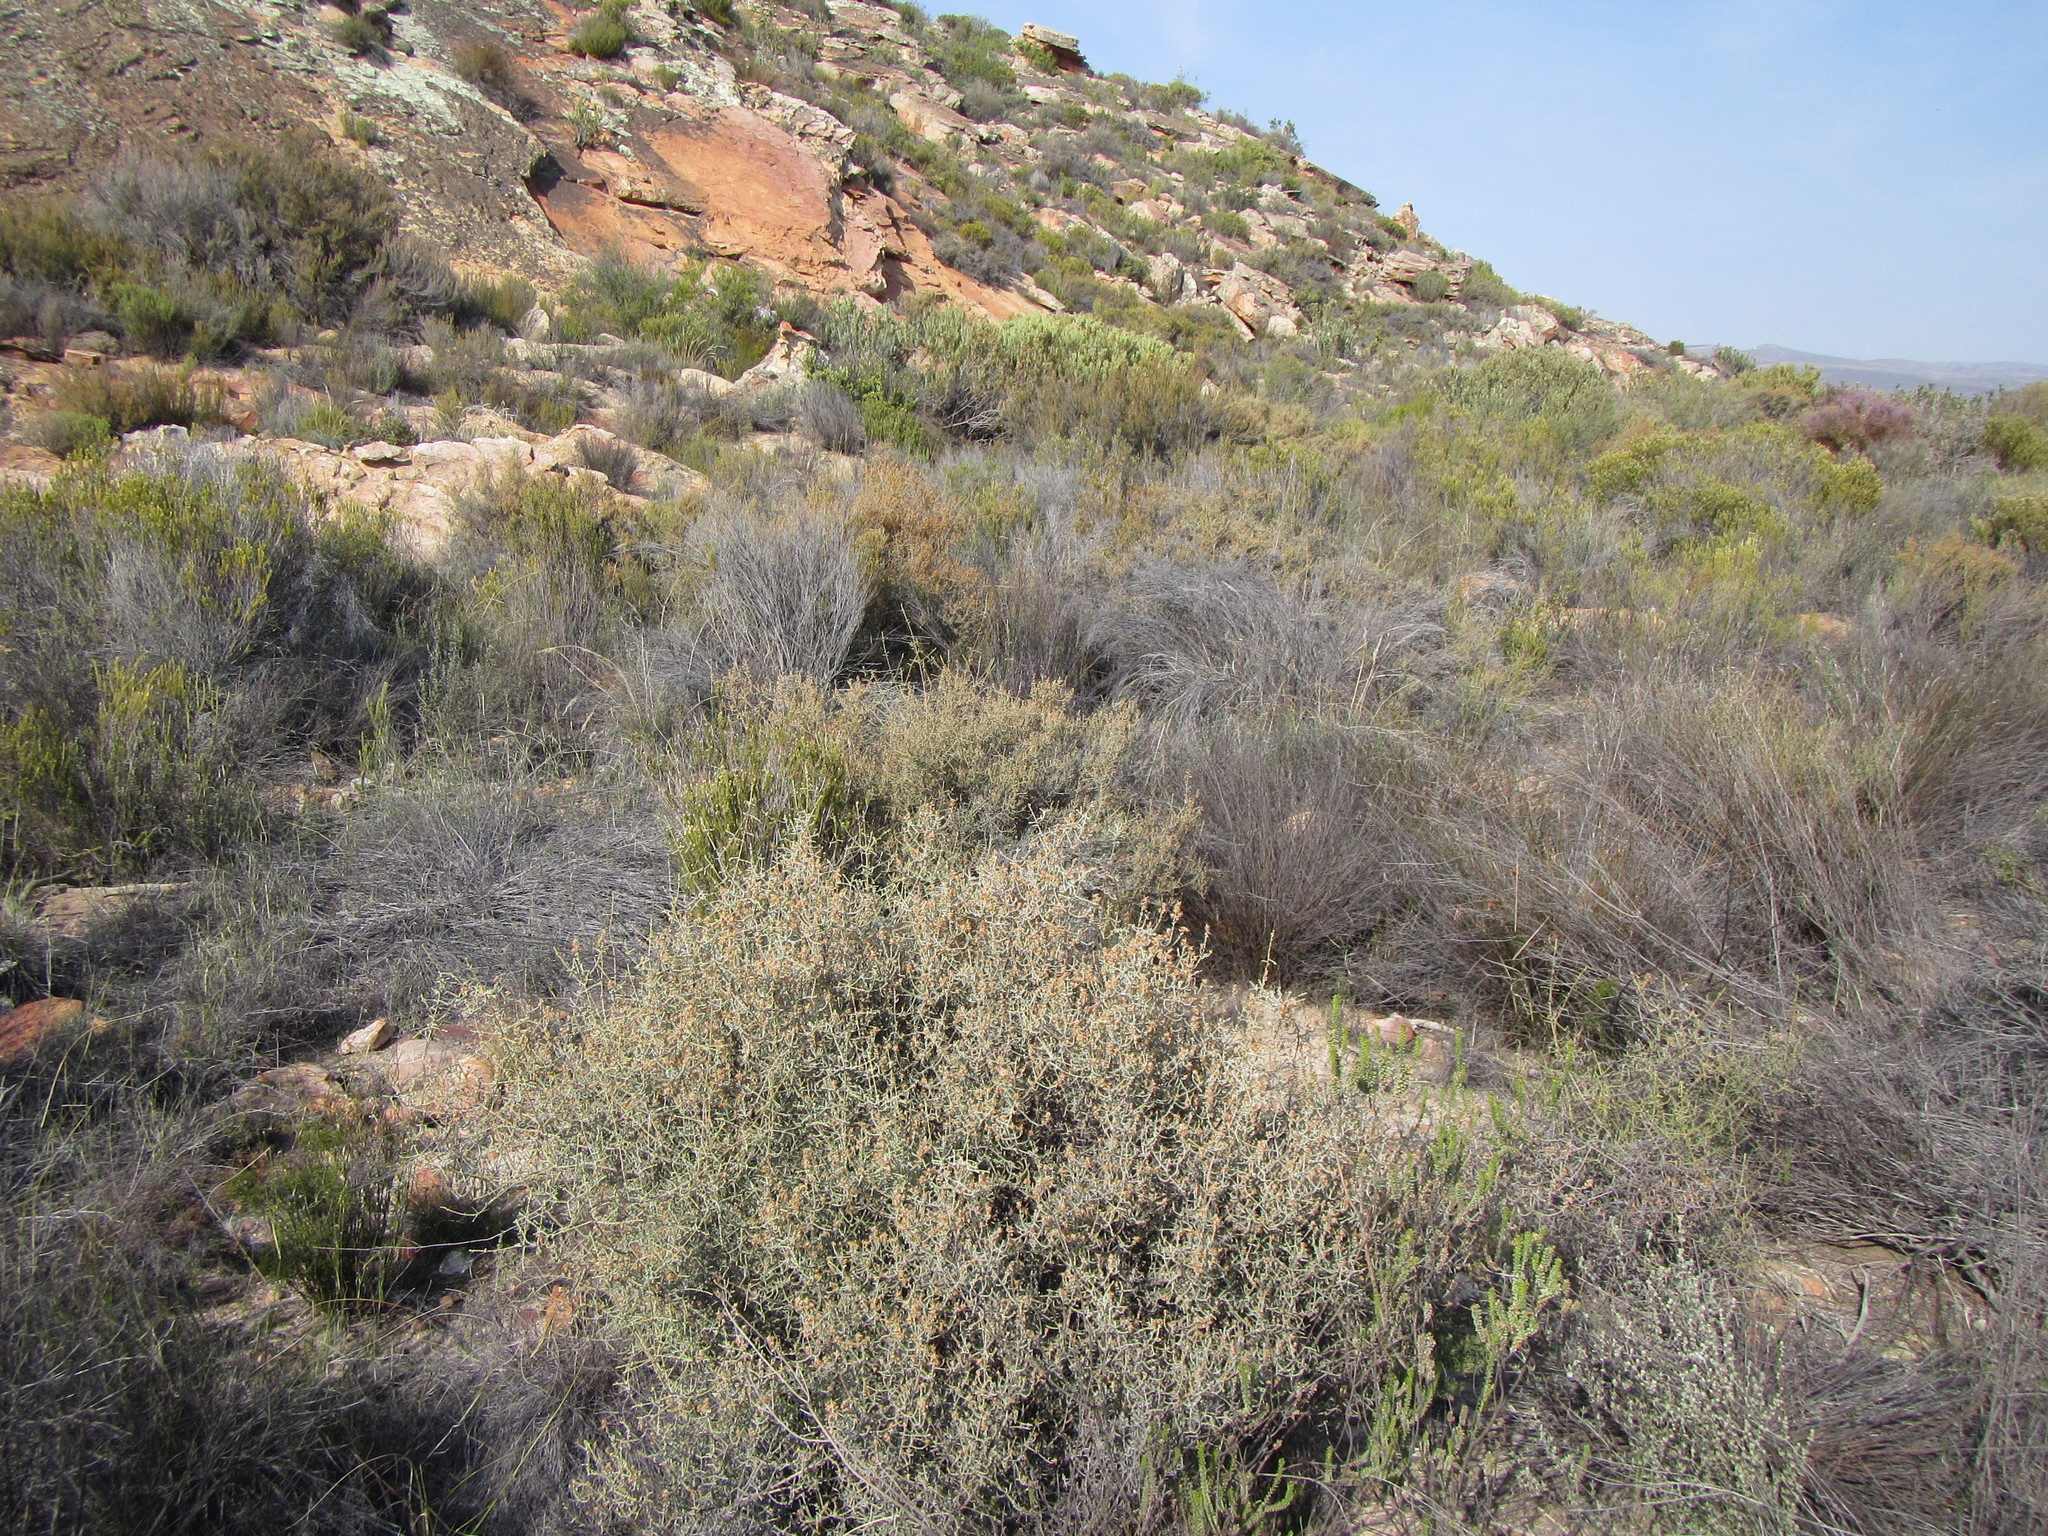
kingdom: Plantae
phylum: Tracheophyta
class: Magnoliopsida
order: Asterales
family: Asteraceae
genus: Myrovernix
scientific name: Myrovernix intricata
